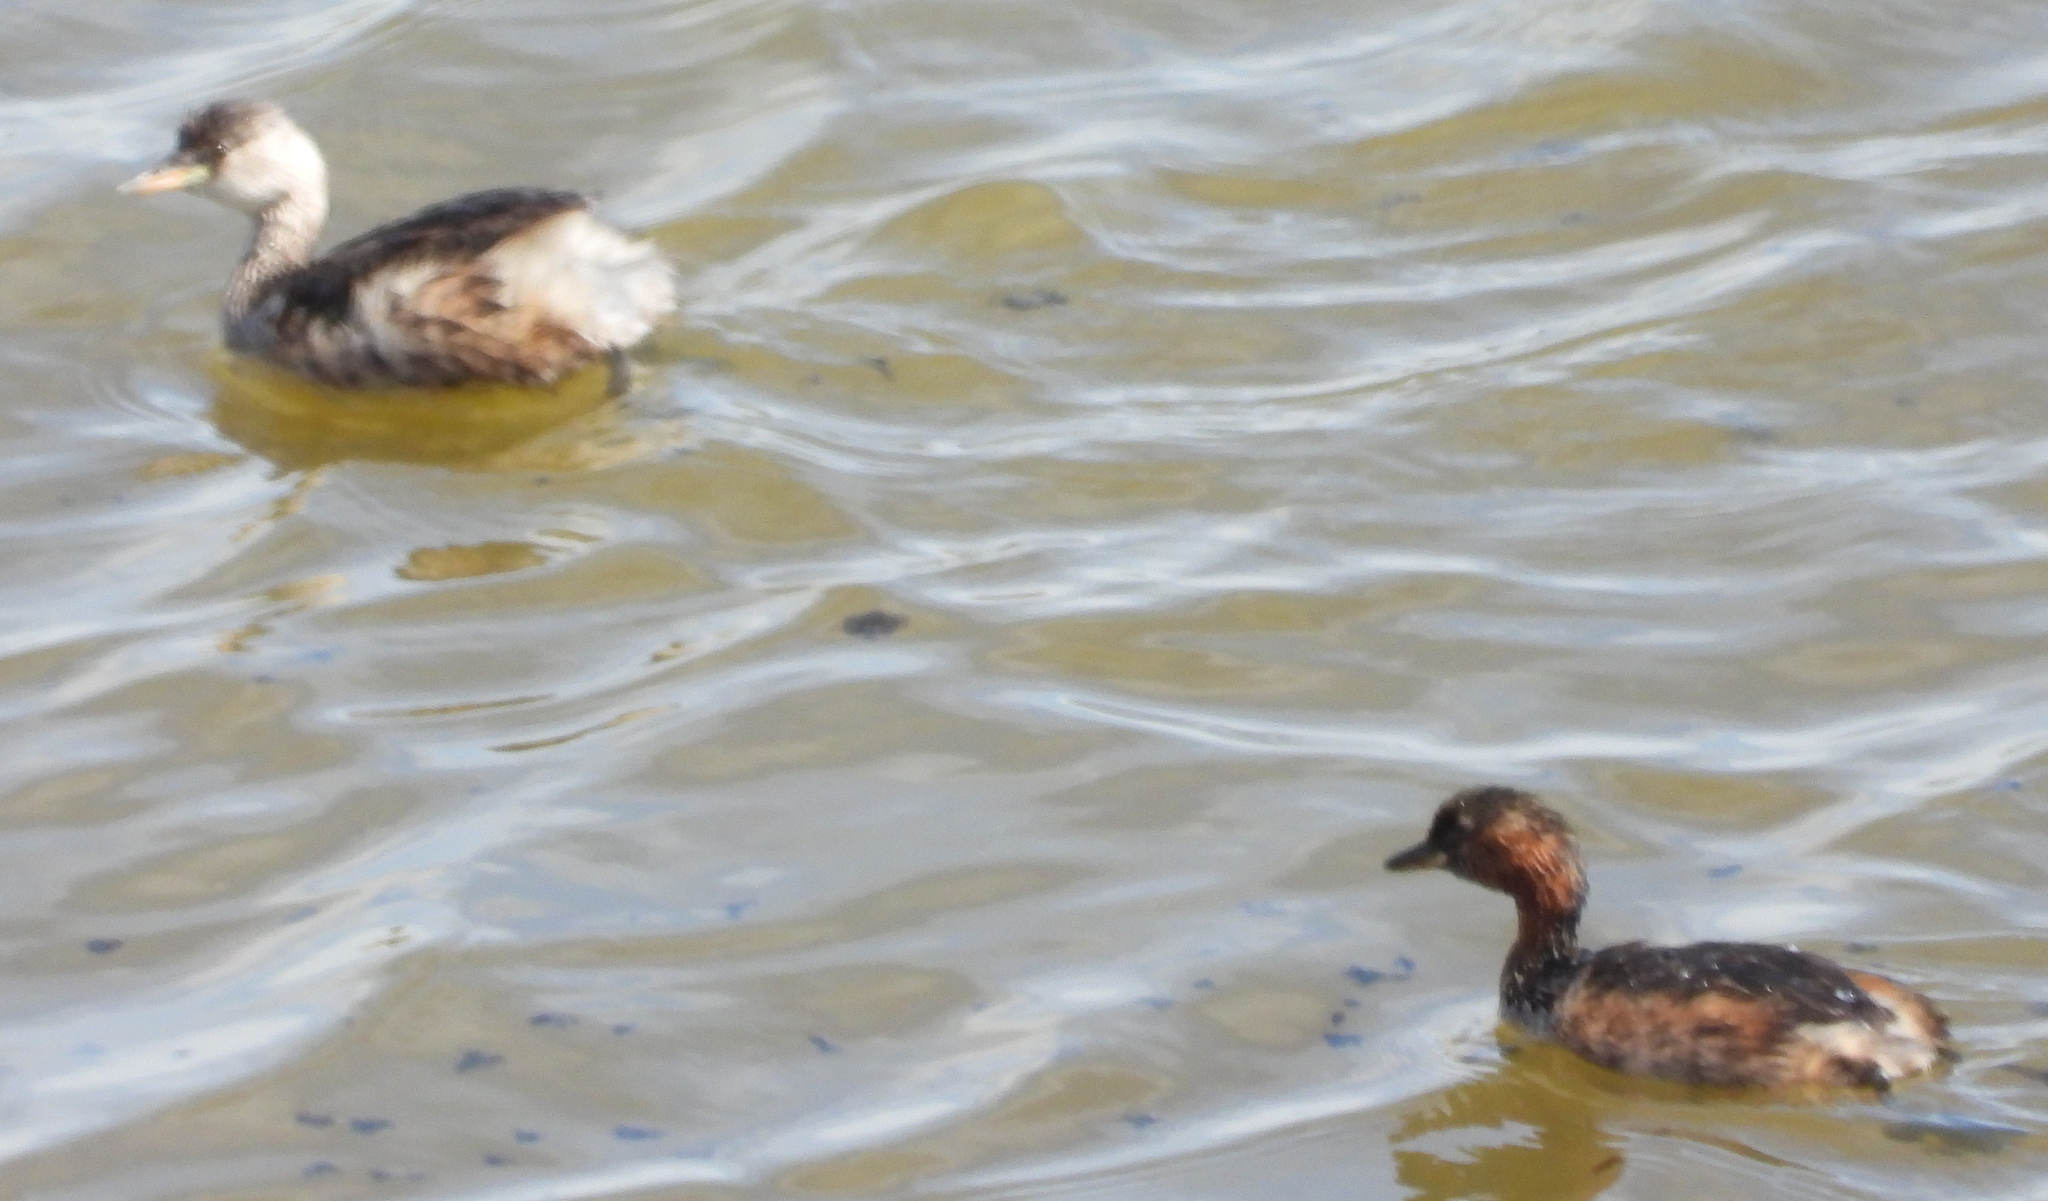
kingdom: Animalia
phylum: Chordata
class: Aves
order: Podicipediformes
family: Podicipedidae
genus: Tachybaptus
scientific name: Tachybaptus ruficollis
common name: Little grebe
